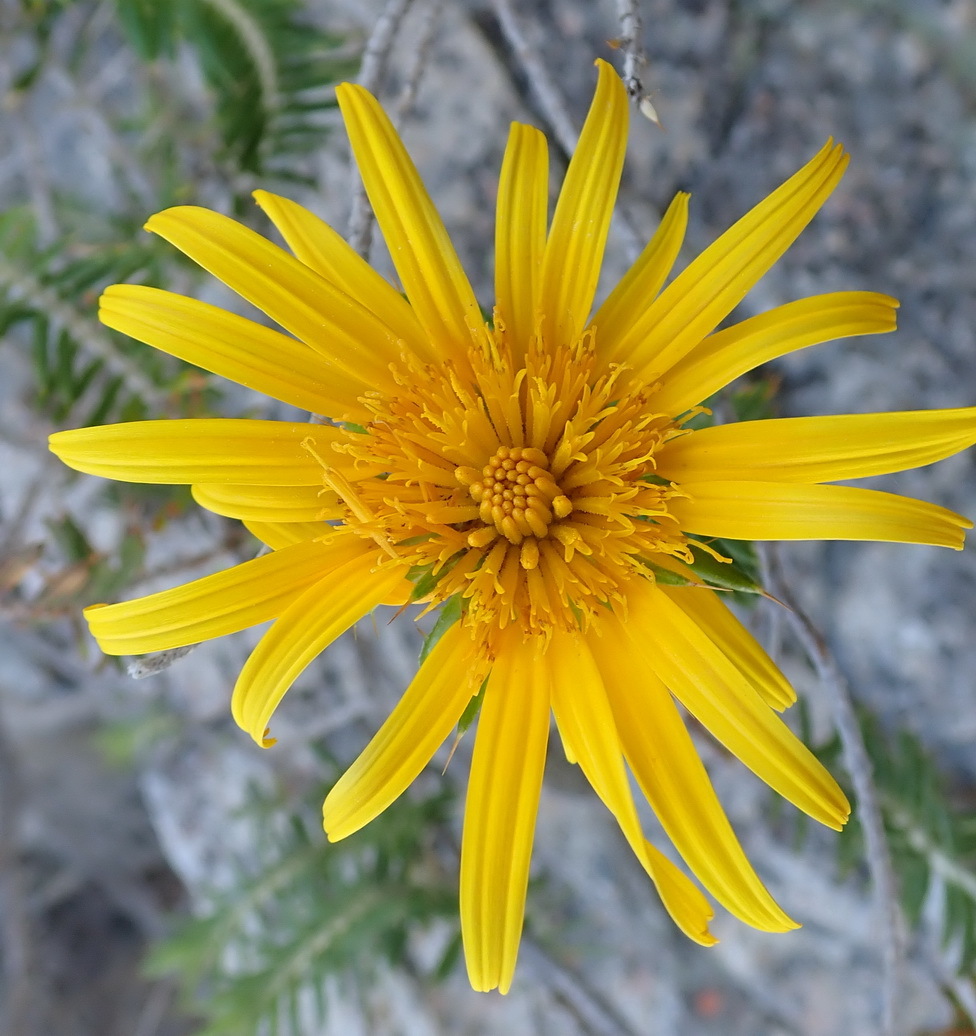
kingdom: Plantae
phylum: Tracheophyta
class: Magnoliopsida
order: Asterales
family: Asteraceae
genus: Berkheya
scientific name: Berkheya angustifolia
